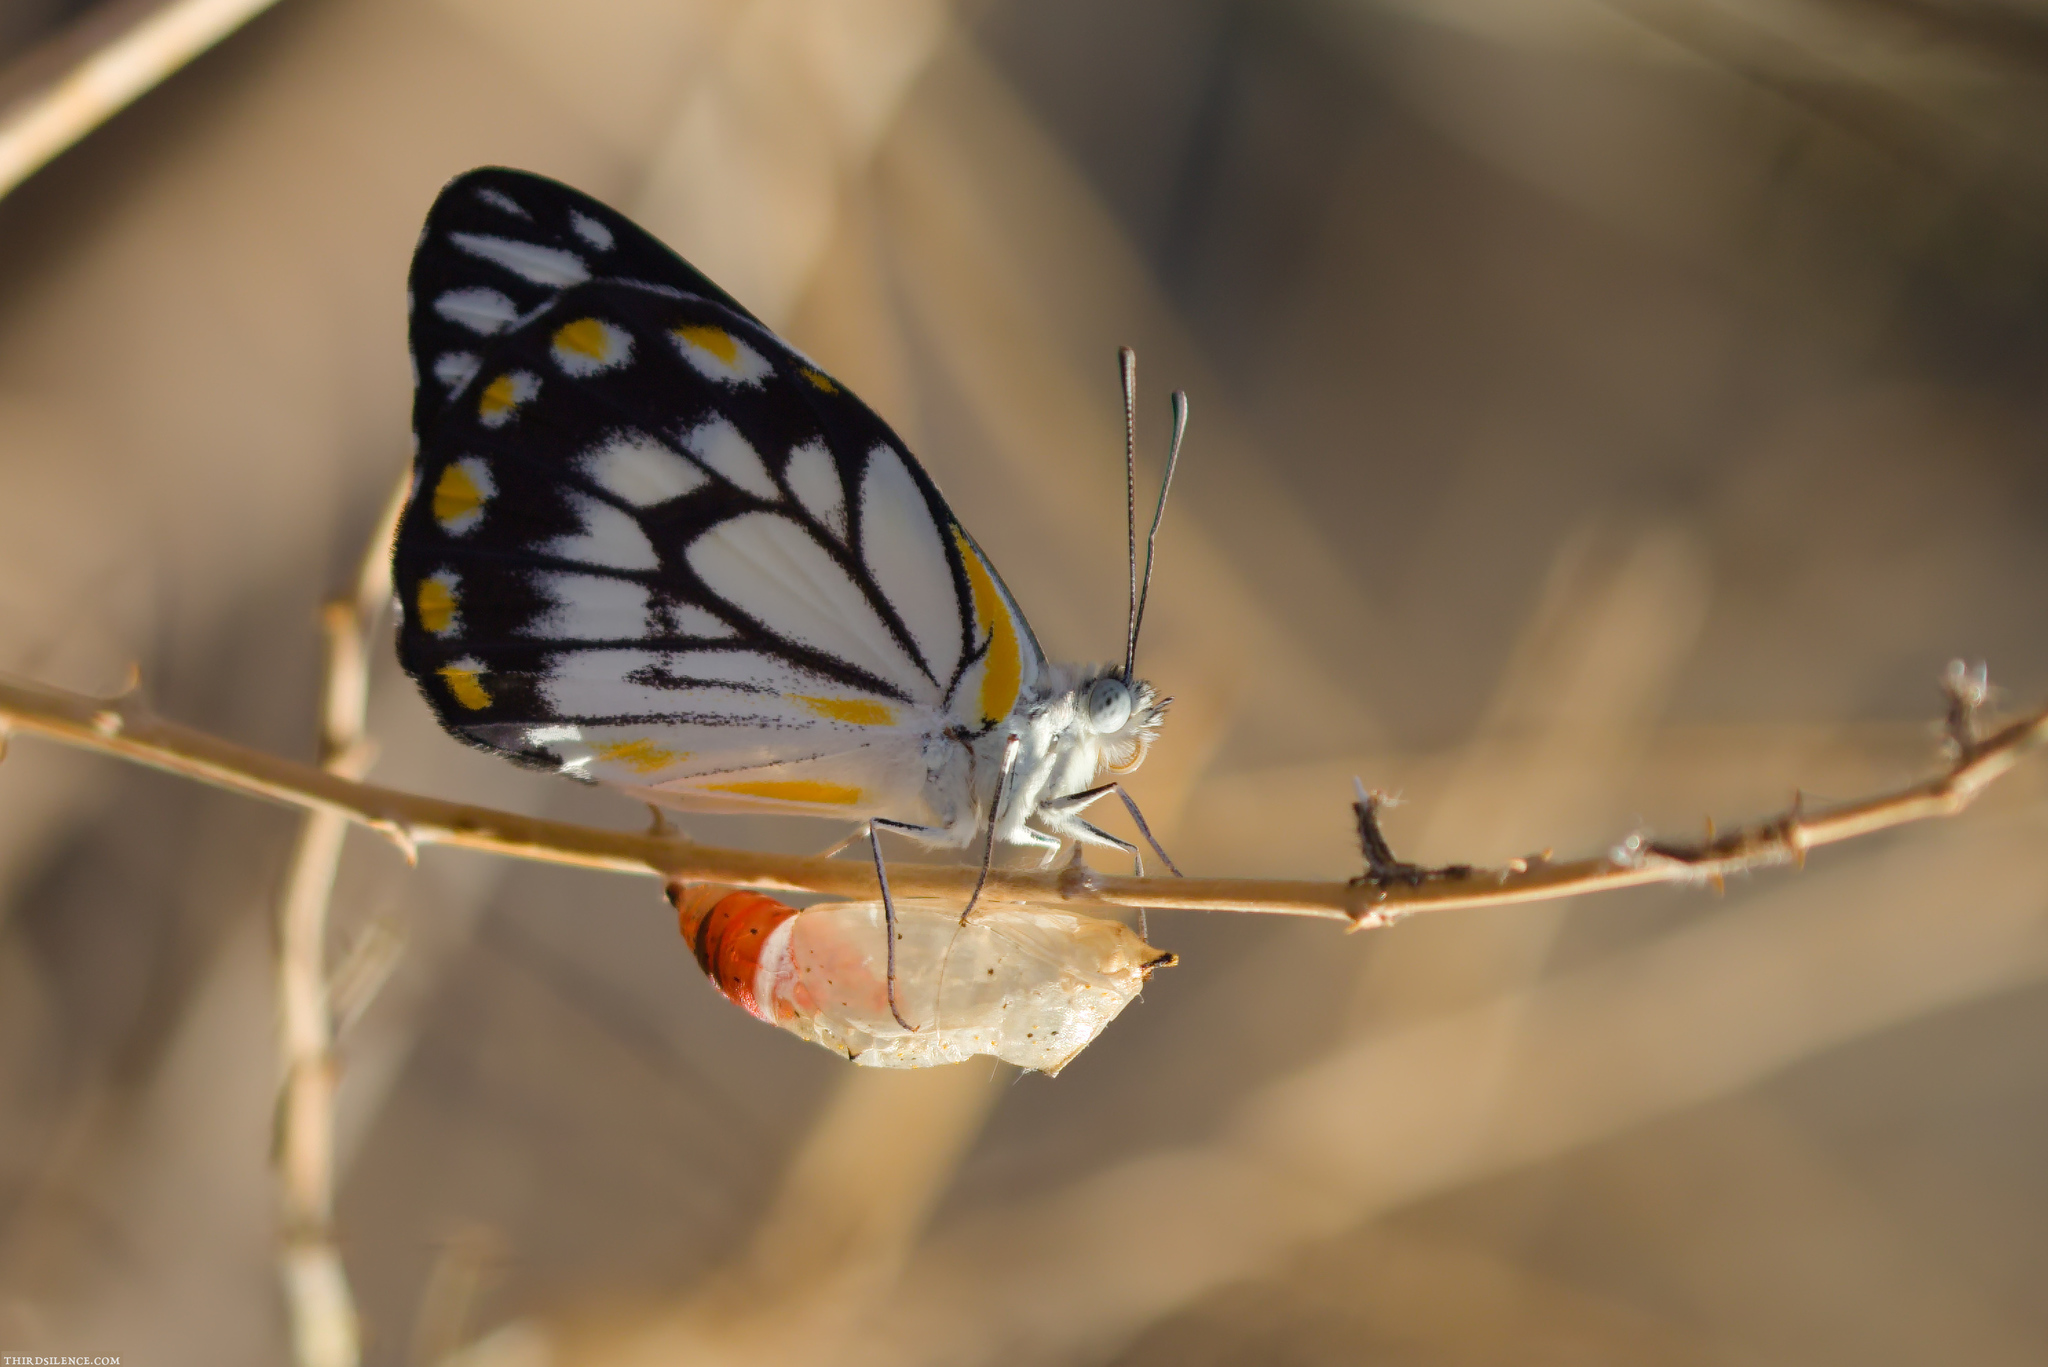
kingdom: Animalia
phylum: Arthropoda
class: Insecta
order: Lepidoptera
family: Pieridae
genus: Belenois
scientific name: Belenois java
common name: Caper white
